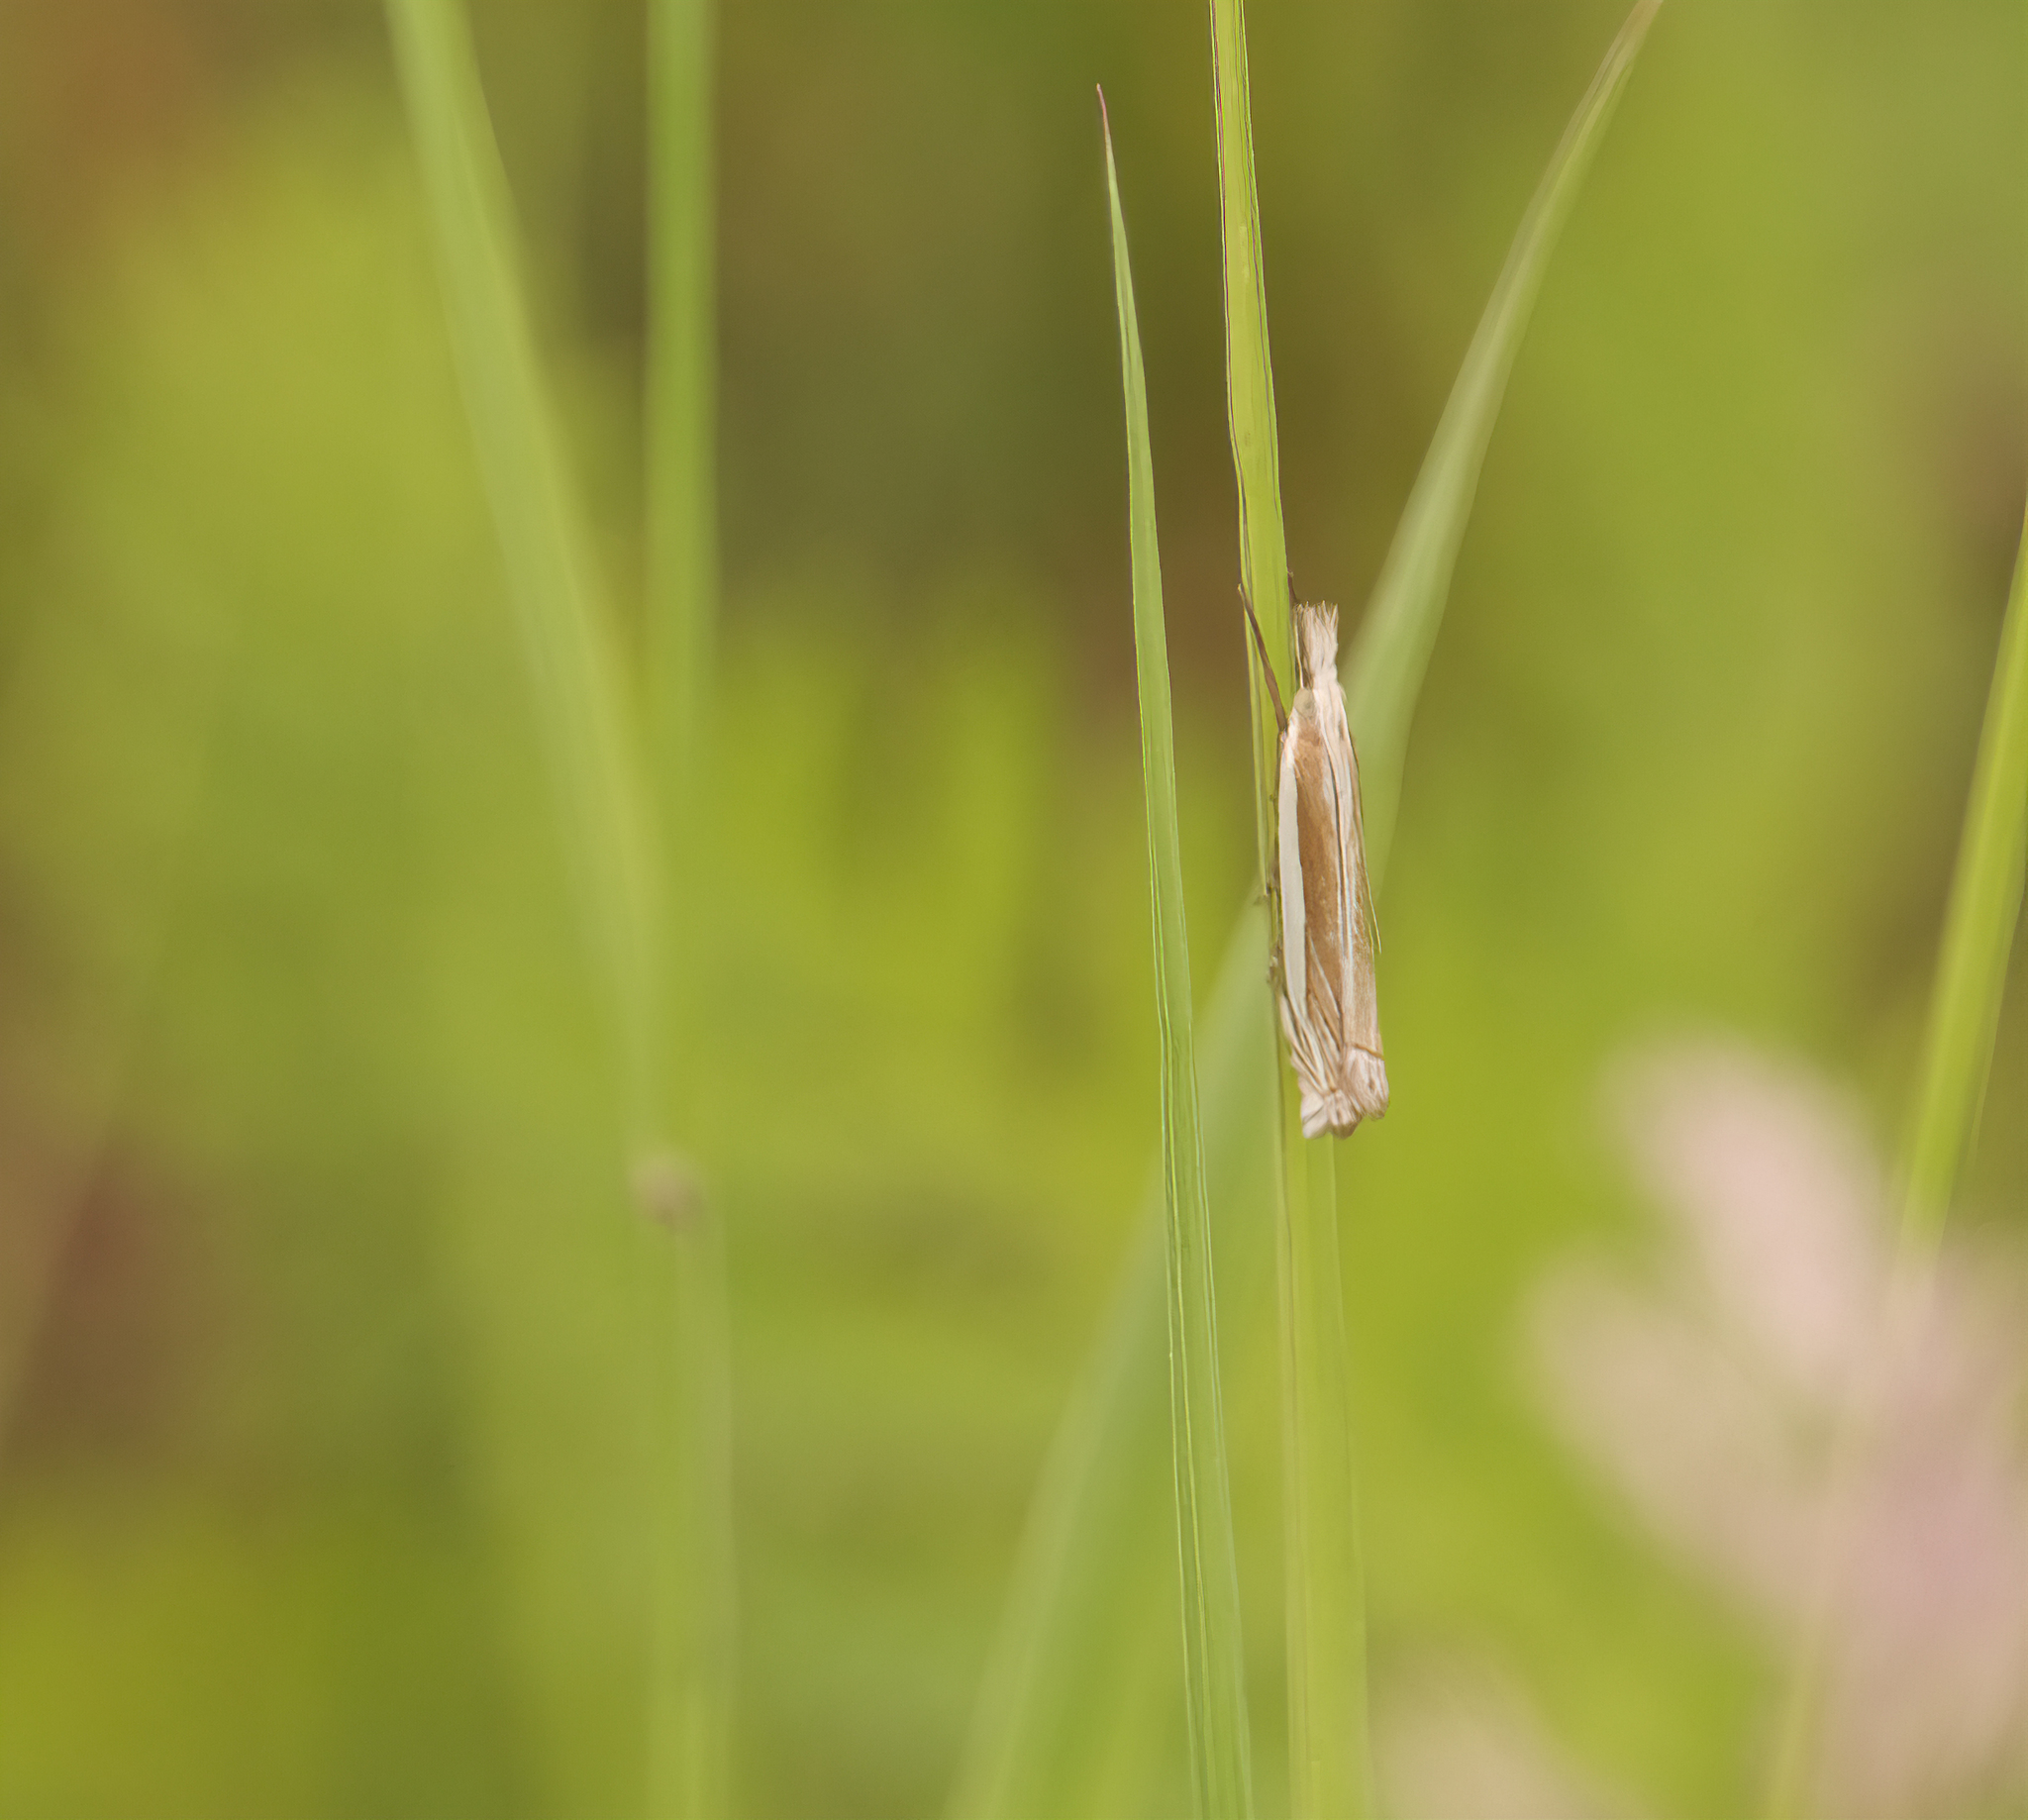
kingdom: Animalia
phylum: Arthropoda
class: Insecta
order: Lepidoptera
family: Crambidae
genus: Crambus
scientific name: Crambus pascuella
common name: Inlaid grass-veneer
